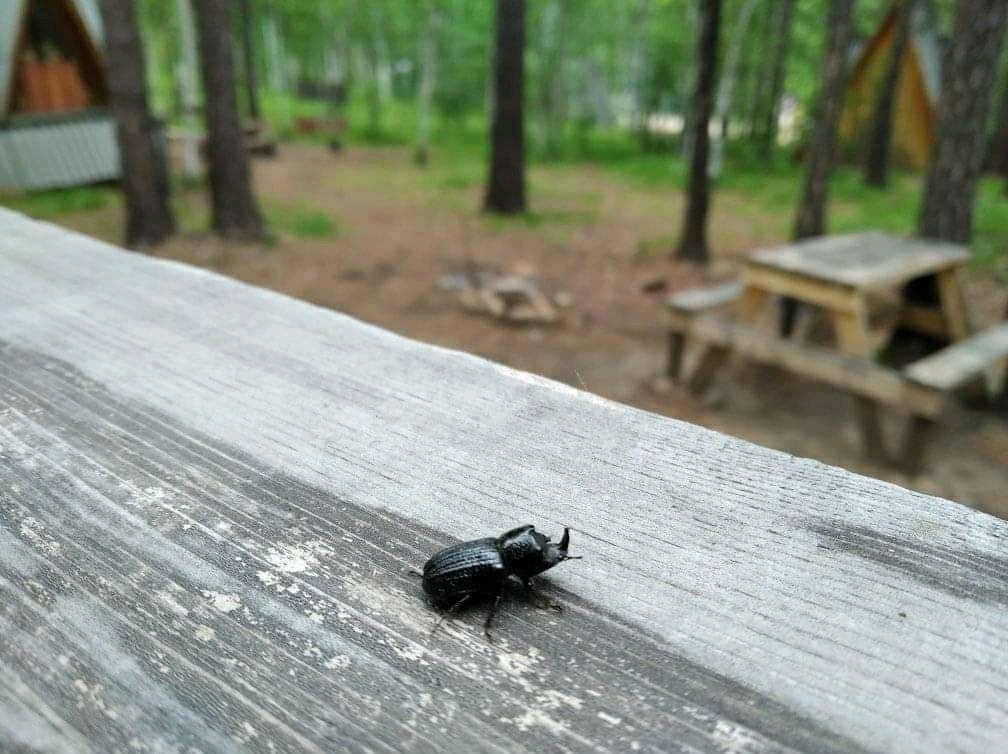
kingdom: Animalia
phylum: Arthropoda
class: Insecta
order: Coleoptera
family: Lucanidae
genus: Sinodendron
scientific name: Sinodendron cylindricum
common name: Rhinoceros beetle
